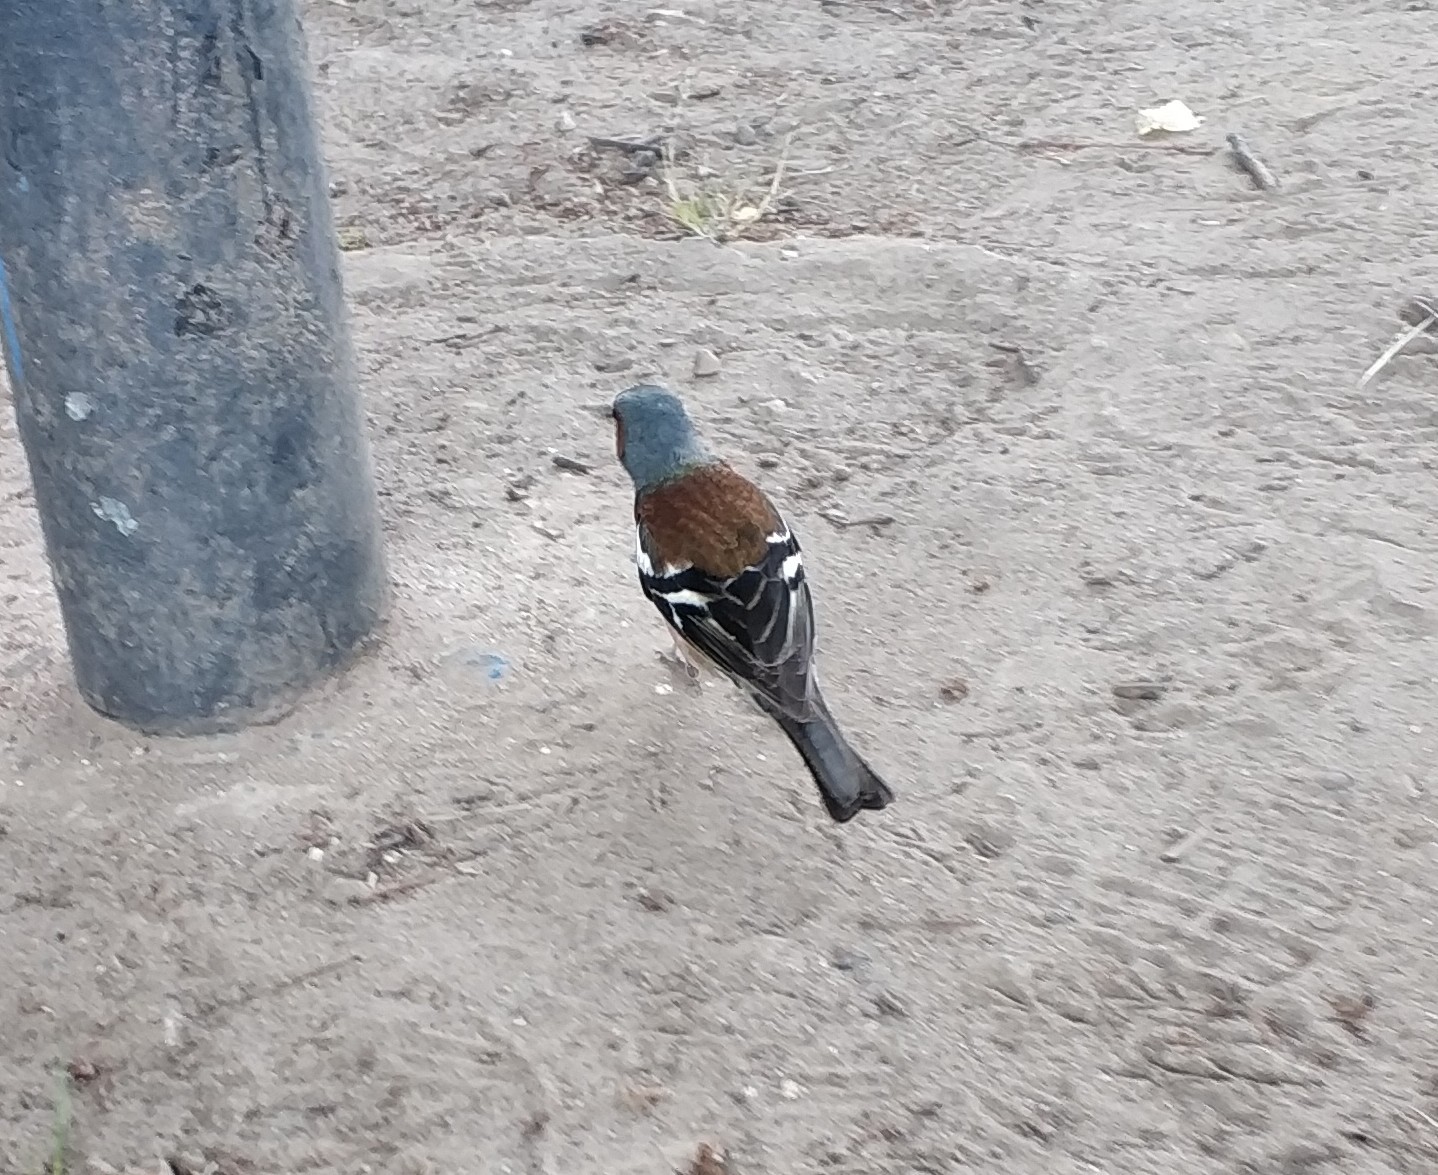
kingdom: Animalia
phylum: Chordata
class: Aves
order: Passeriformes
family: Fringillidae
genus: Fringilla
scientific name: Fringilla coelebs
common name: Common chaffinch
